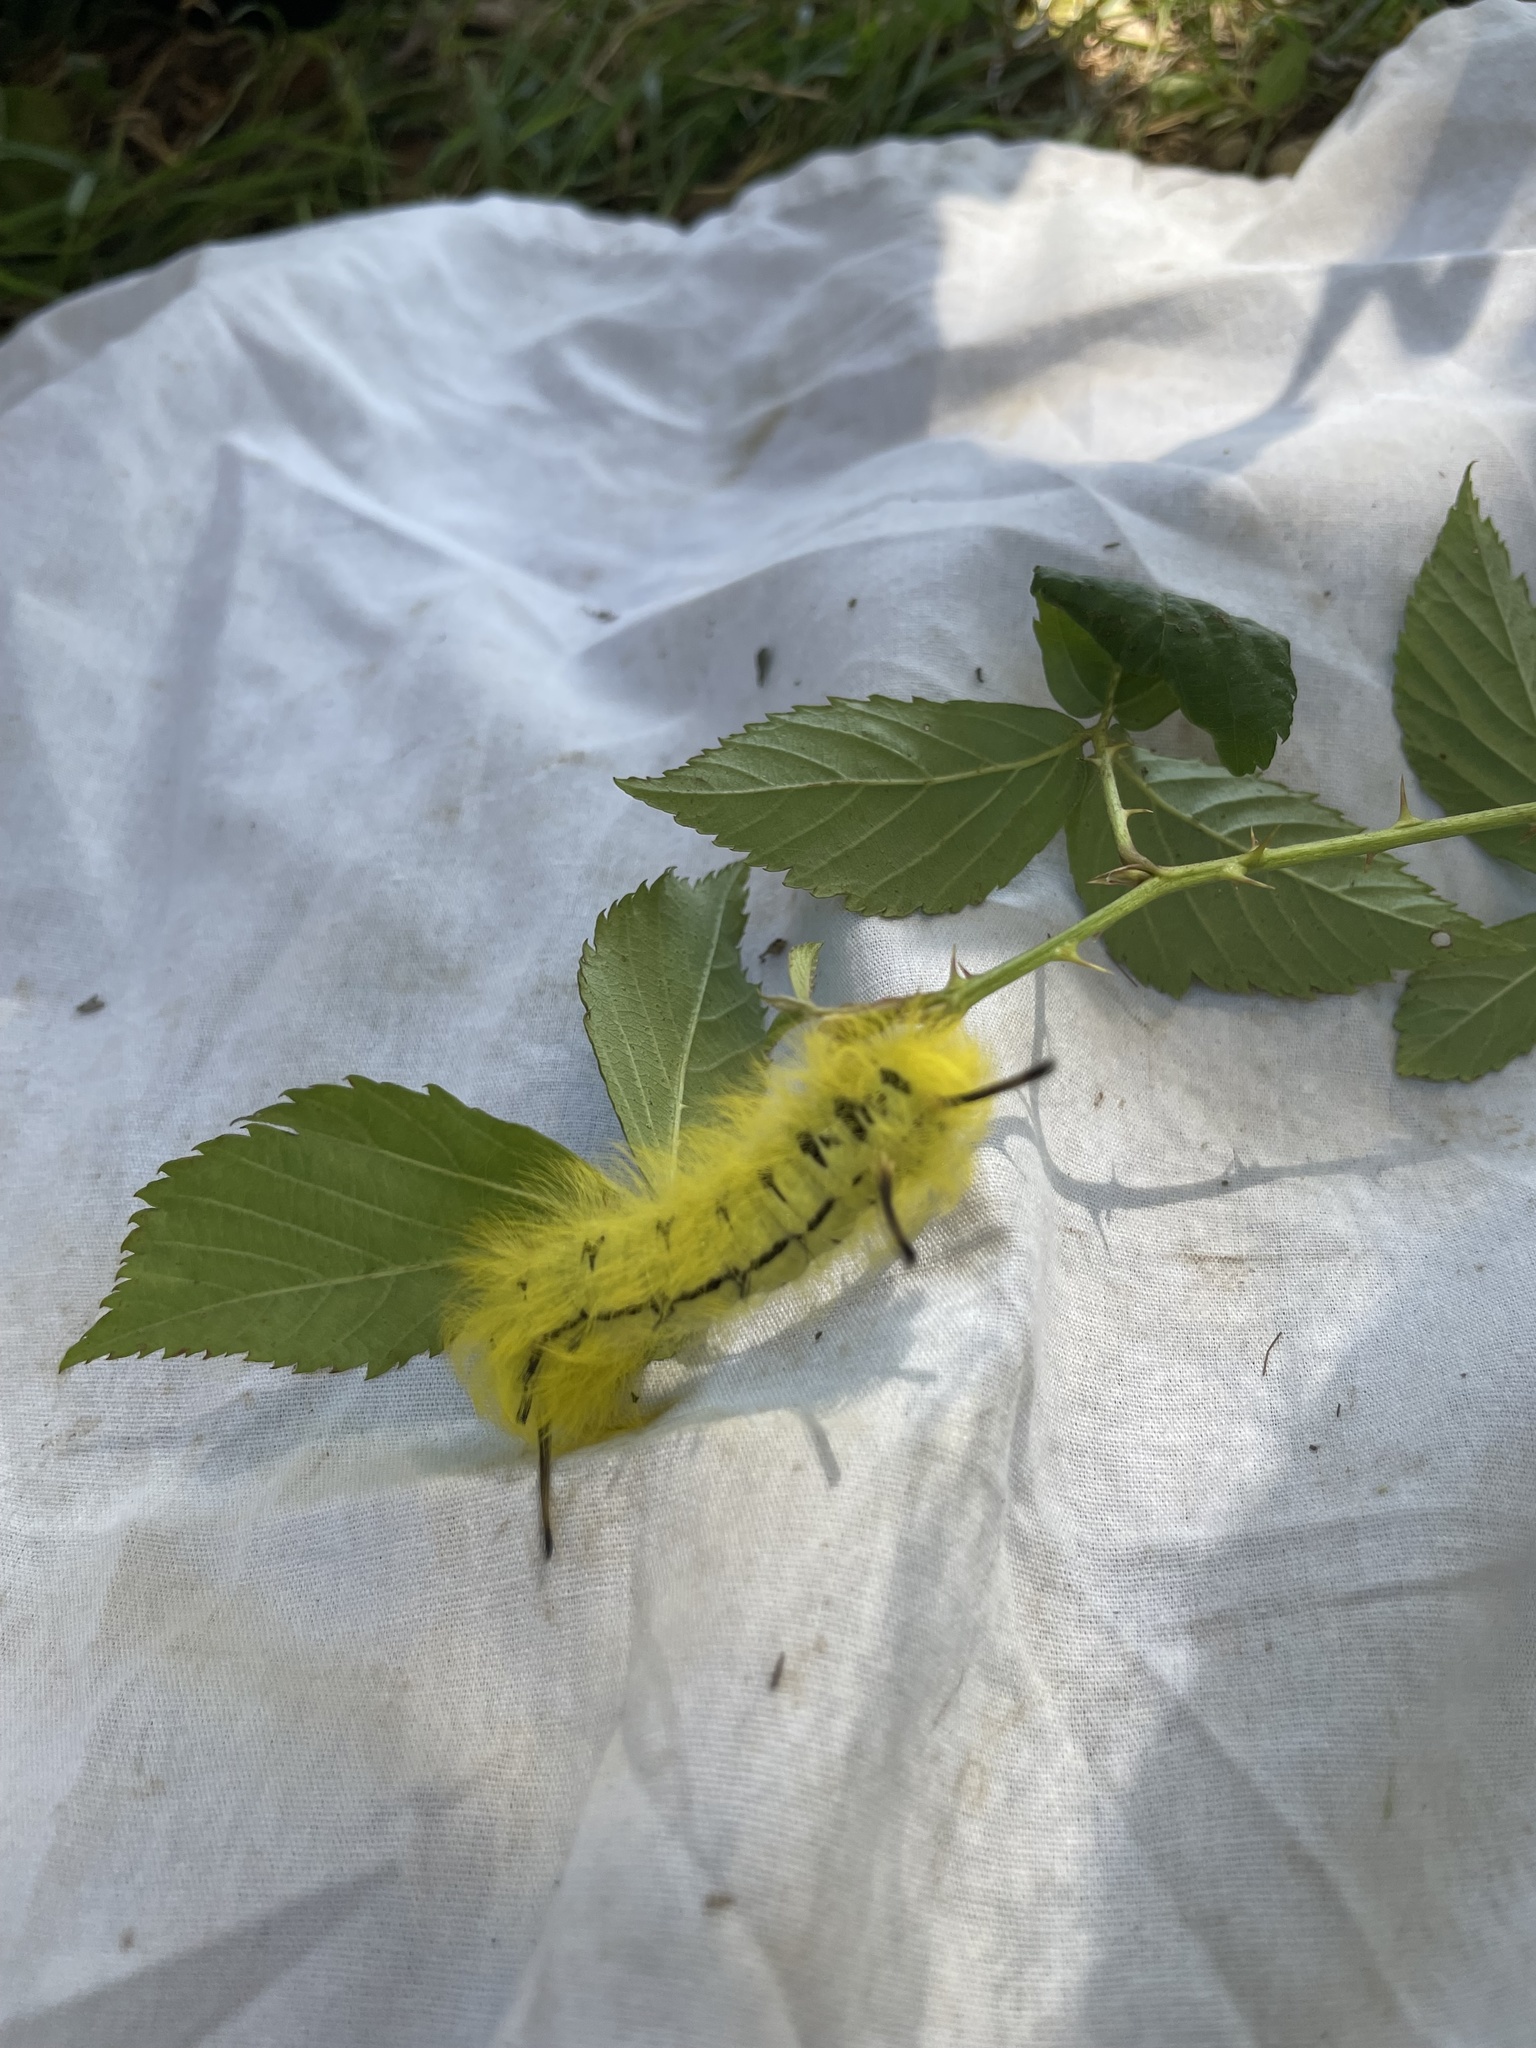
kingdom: Animalia
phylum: Arthropoda
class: Insecta
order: Lepidoptera
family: Apatelodidae
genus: Hygrochroa
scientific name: Hygrochroa Apatelodes torrefacta
